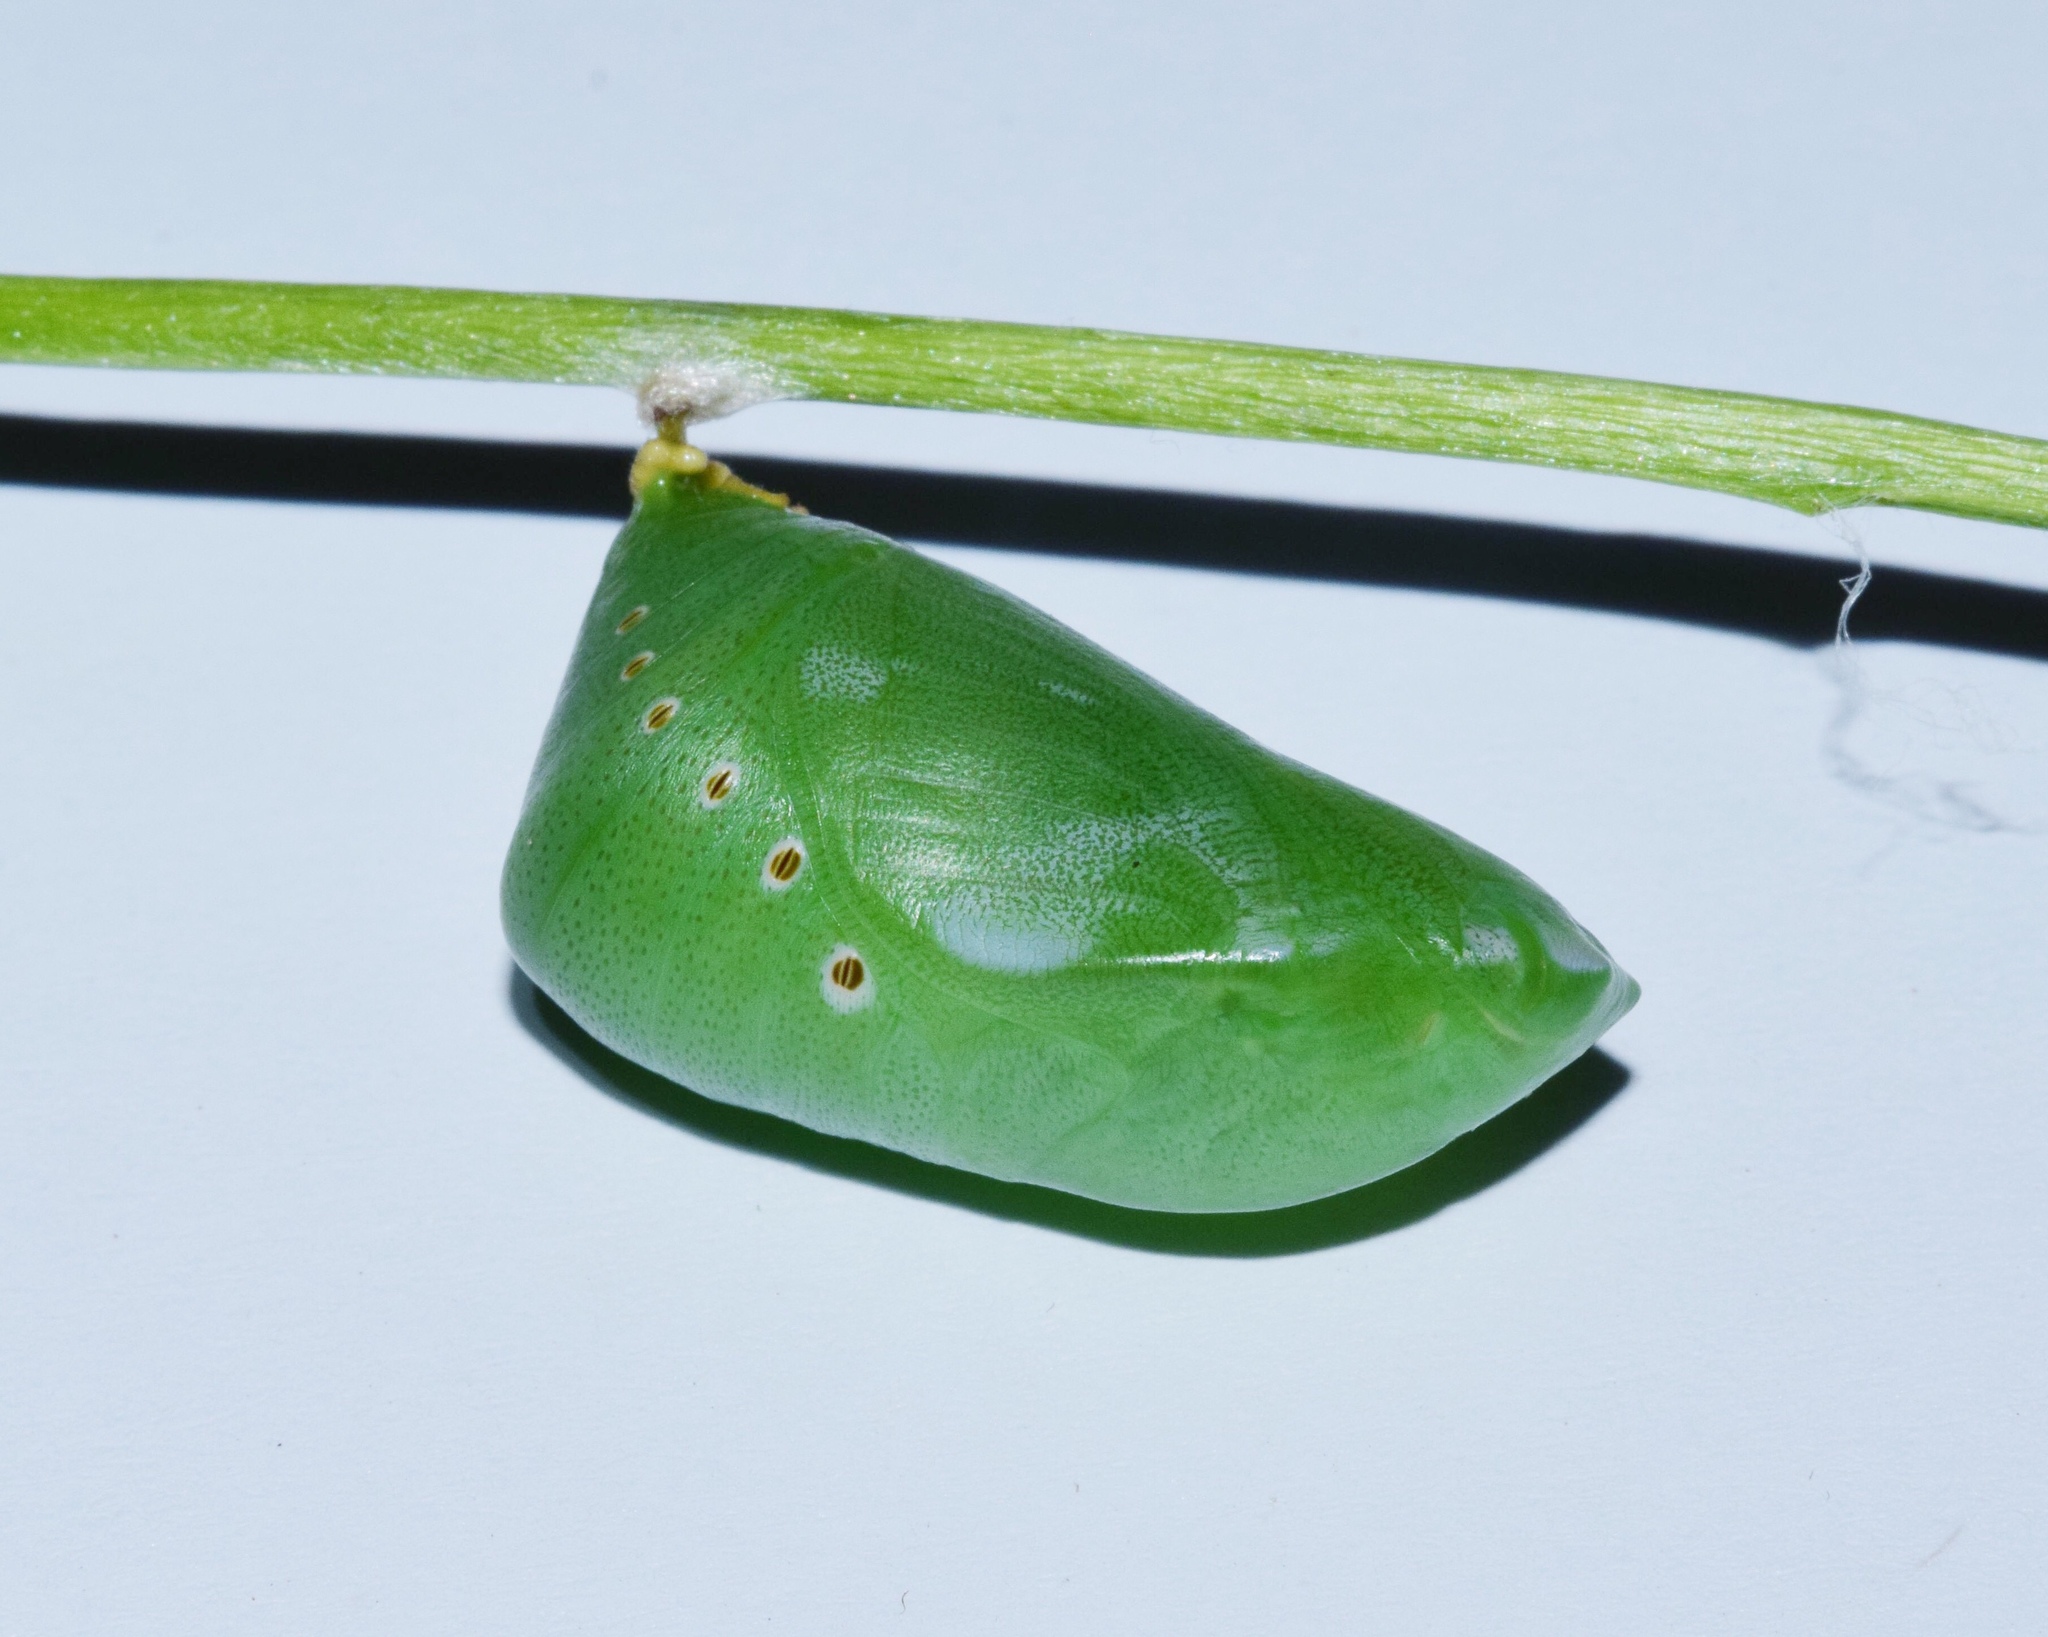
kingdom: Animalia
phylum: Arthropoda
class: Insecta
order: Lepidoptera
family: Nymphalidae
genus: Charaxes
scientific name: Charaxes brutus
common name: White-barred charaxes
